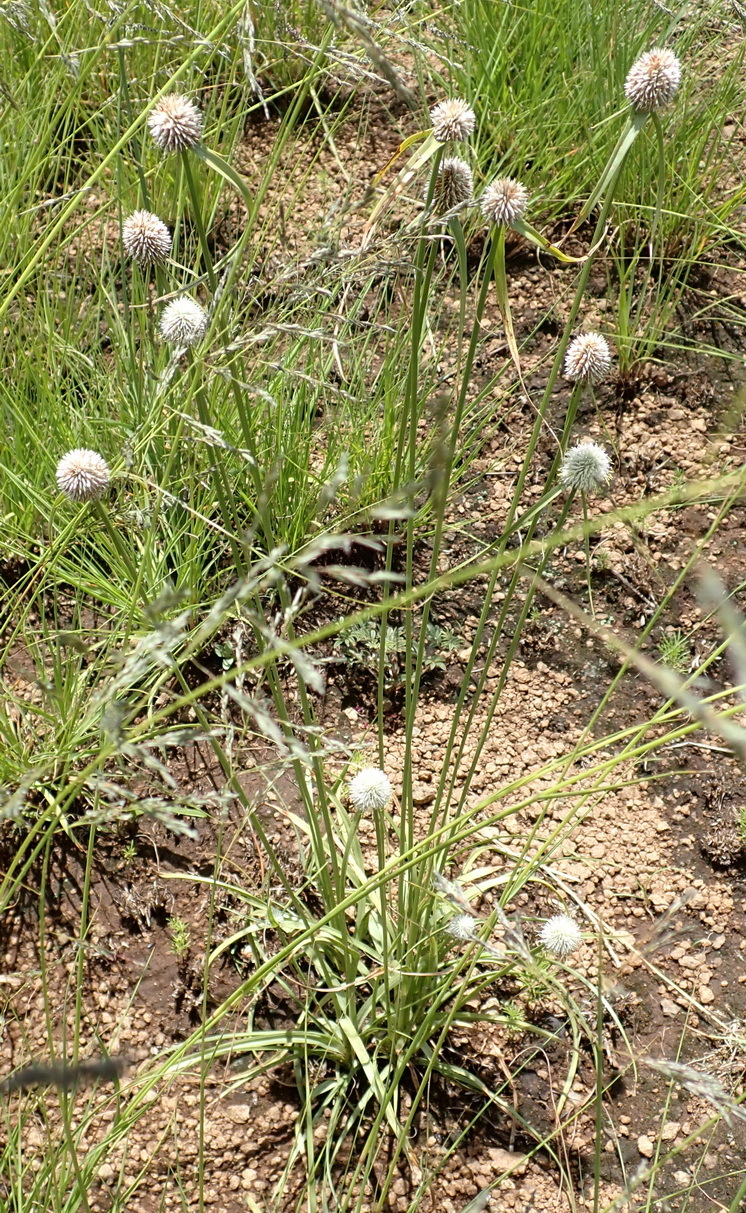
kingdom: Plantae
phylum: Tracheophyta
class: Liliopsida
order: Poales
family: Cyperaceae
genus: Cyperus
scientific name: Cyperus alatus
